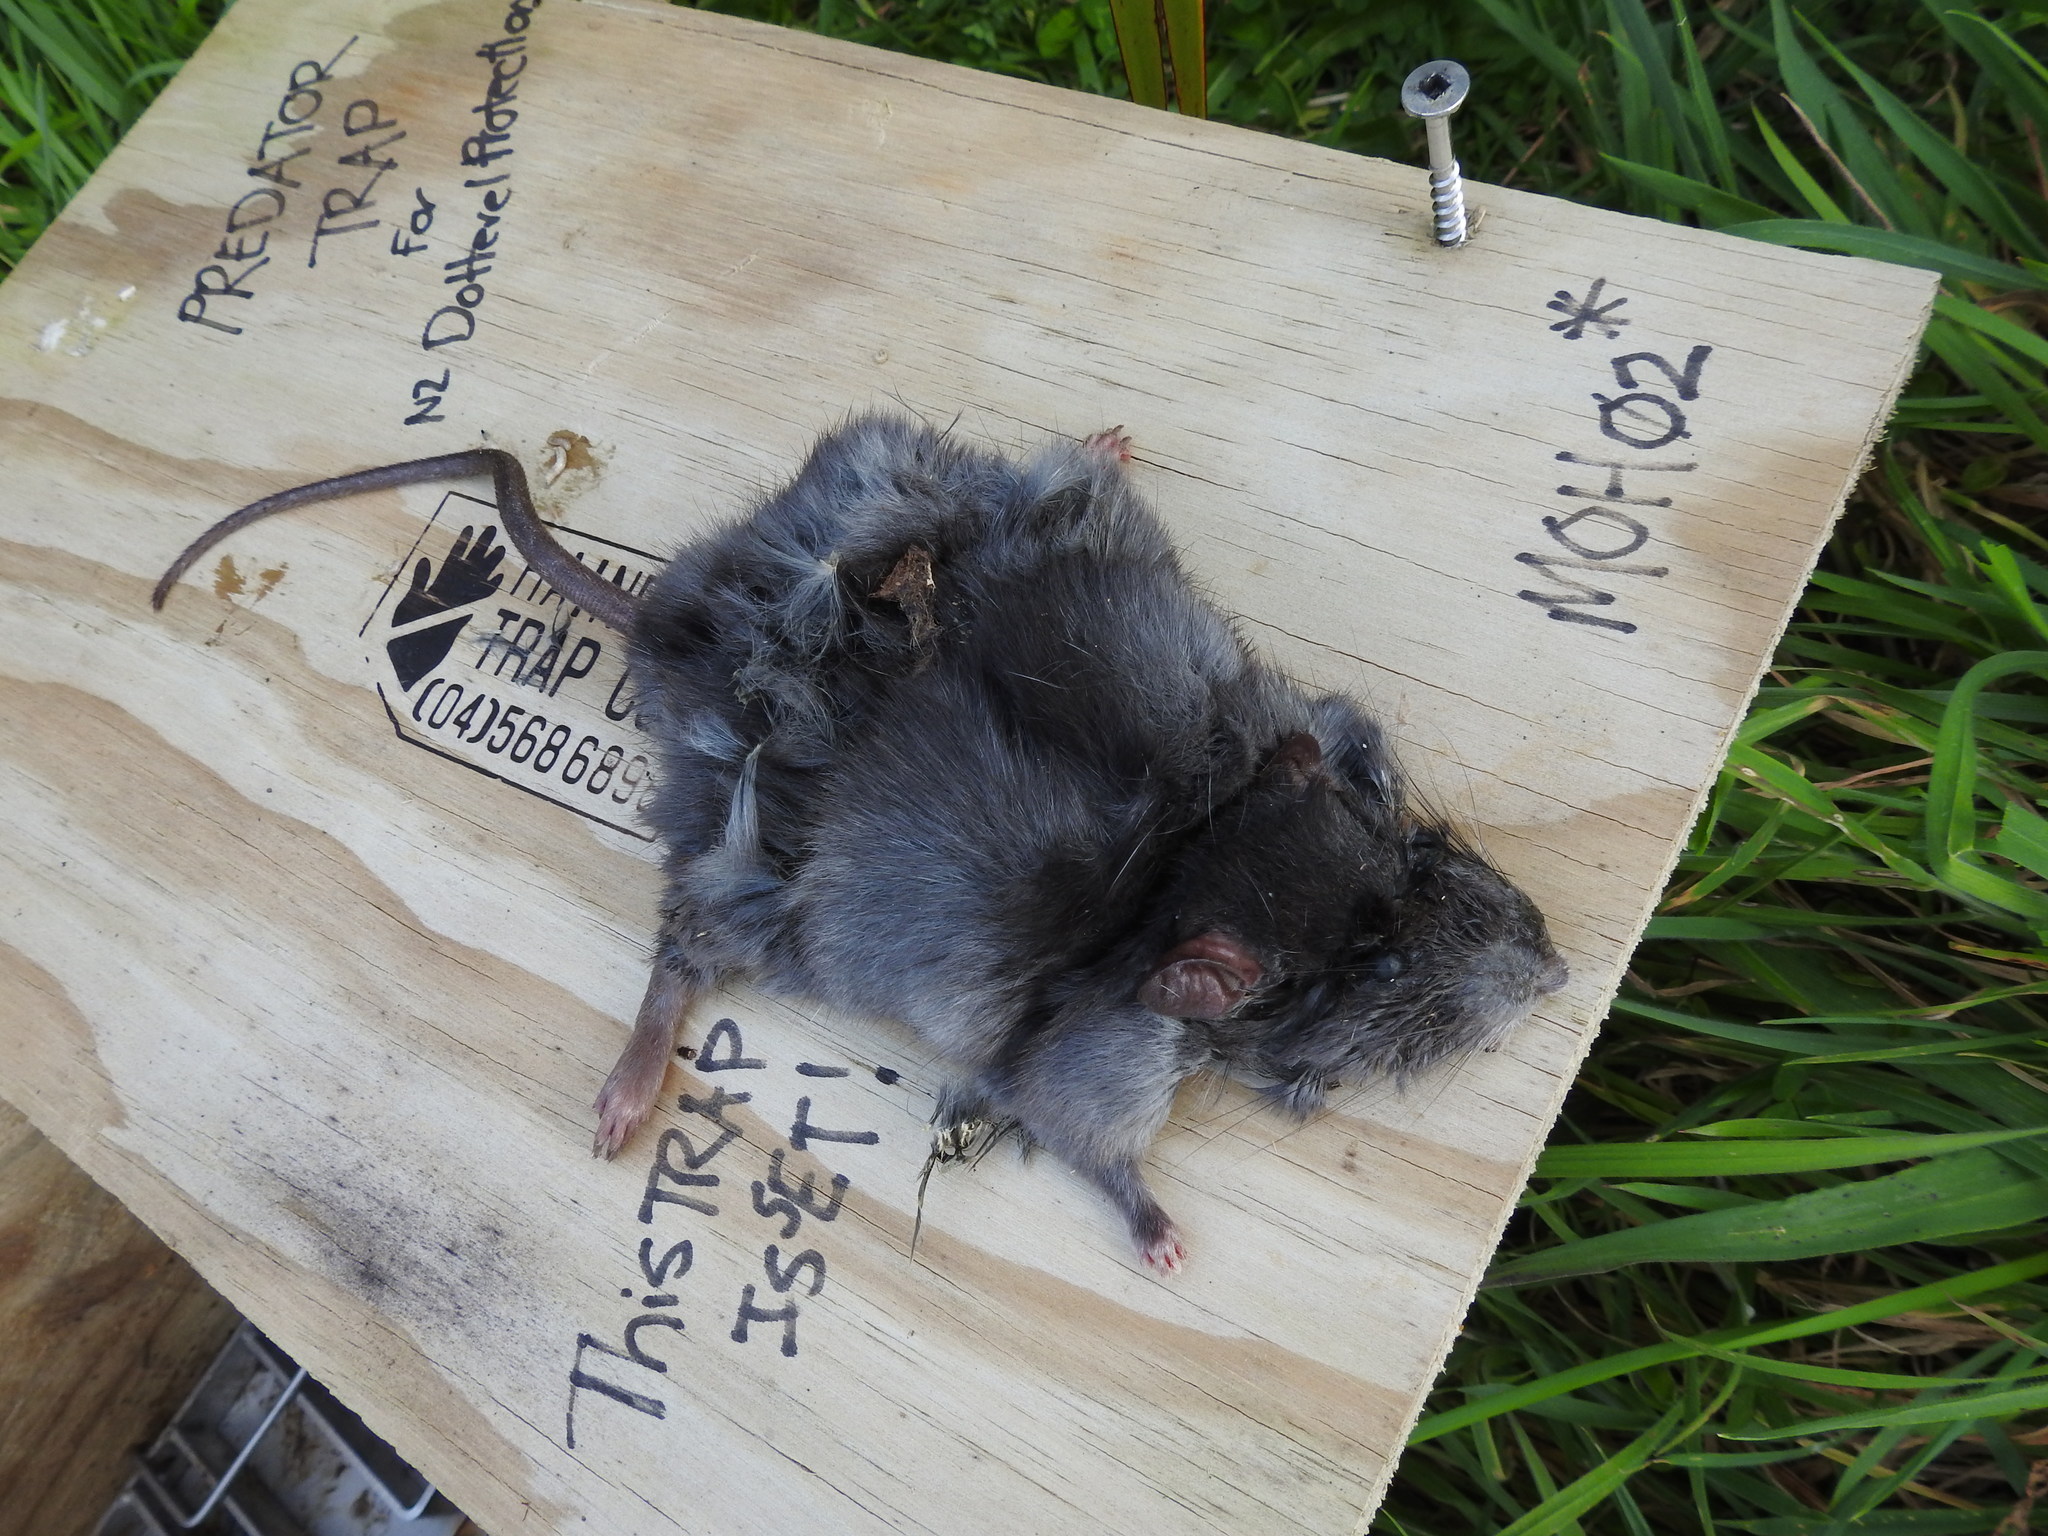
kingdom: Animalia
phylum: Chordata
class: Mammalia
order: Rodentia
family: Muridae
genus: Rattus
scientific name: Rattus rattus
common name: Black rat
